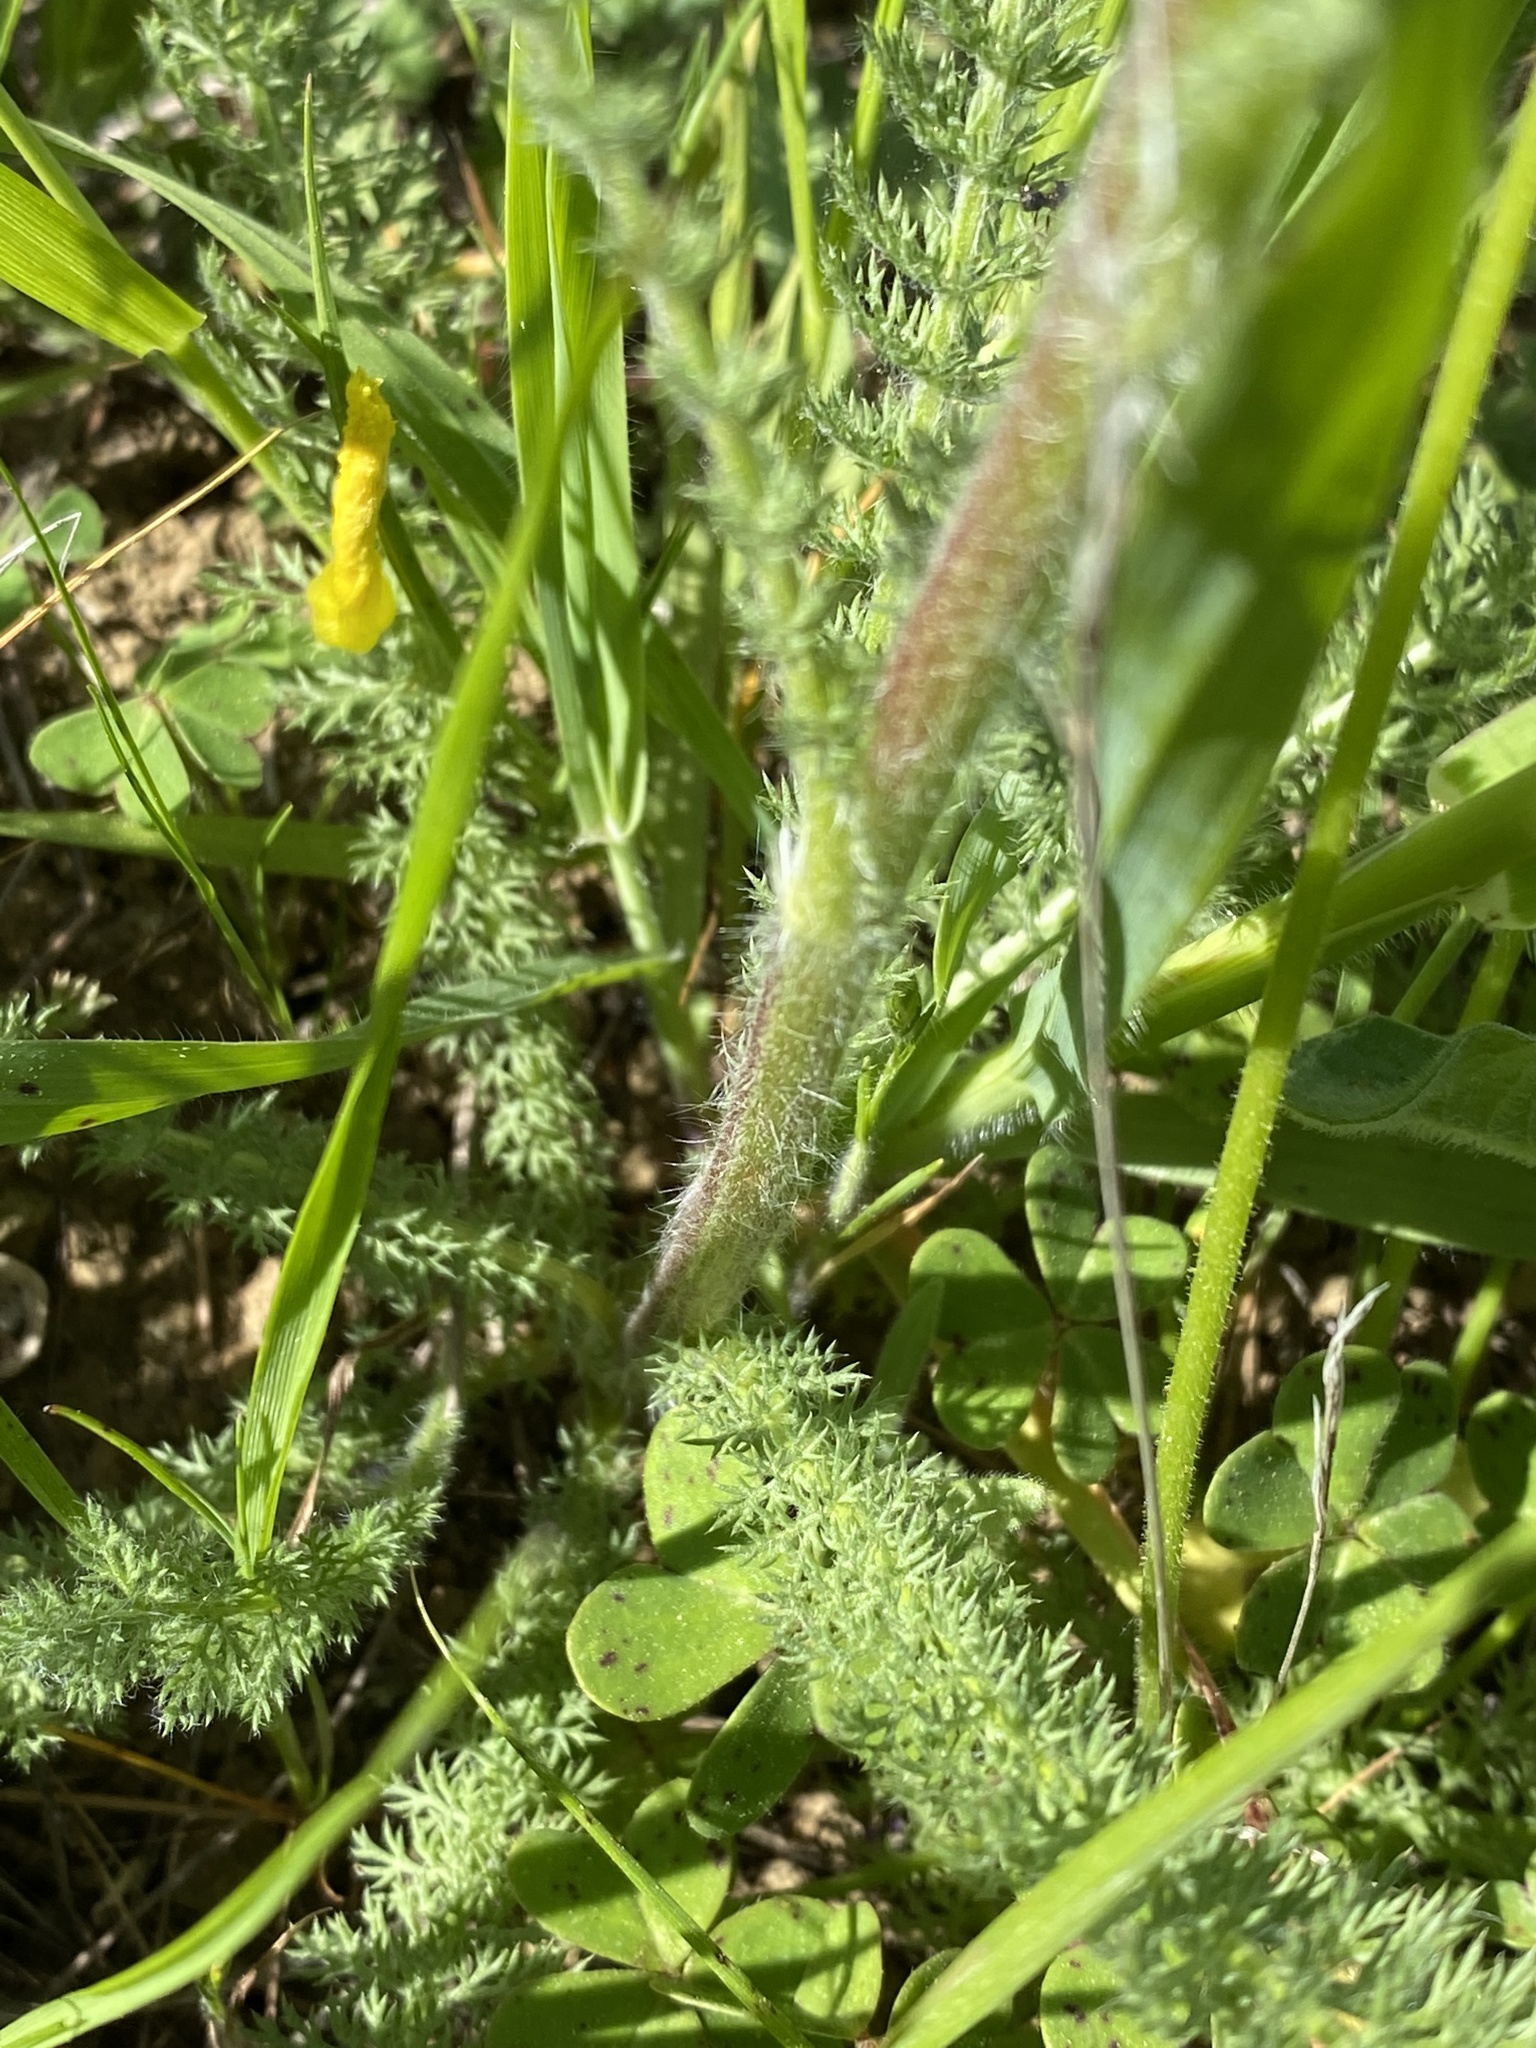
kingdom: Plantae
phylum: Tracheophyta
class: Magnoliopsida
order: Asterales
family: Asteraceae
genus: Achillea
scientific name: Achillea millefolium
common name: Yarrow
